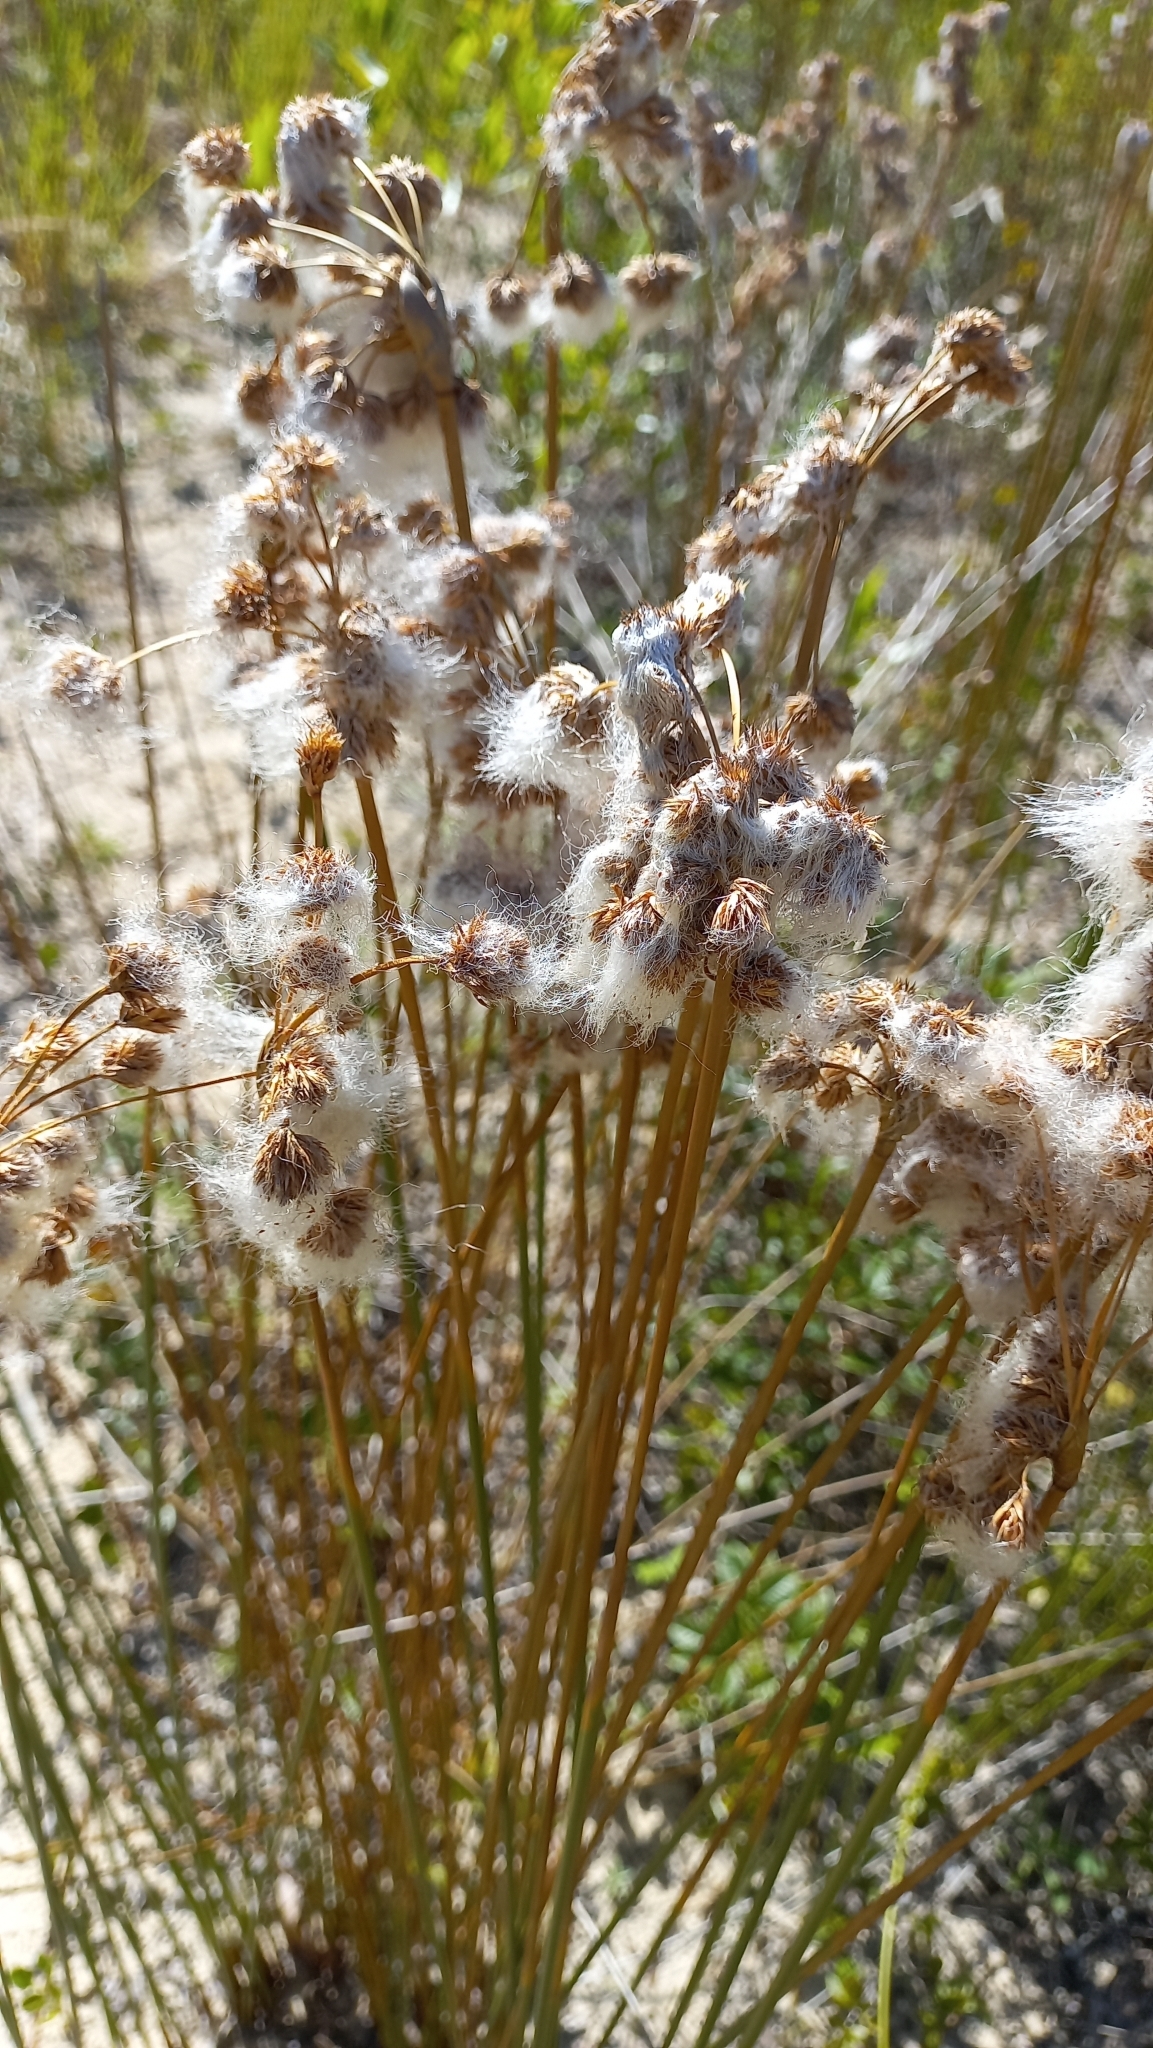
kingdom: Plantae
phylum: Tracheophyta
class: Liliopsida
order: Poales
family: Cyperaceae
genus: Cyperus
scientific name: Cyperus trigynus
